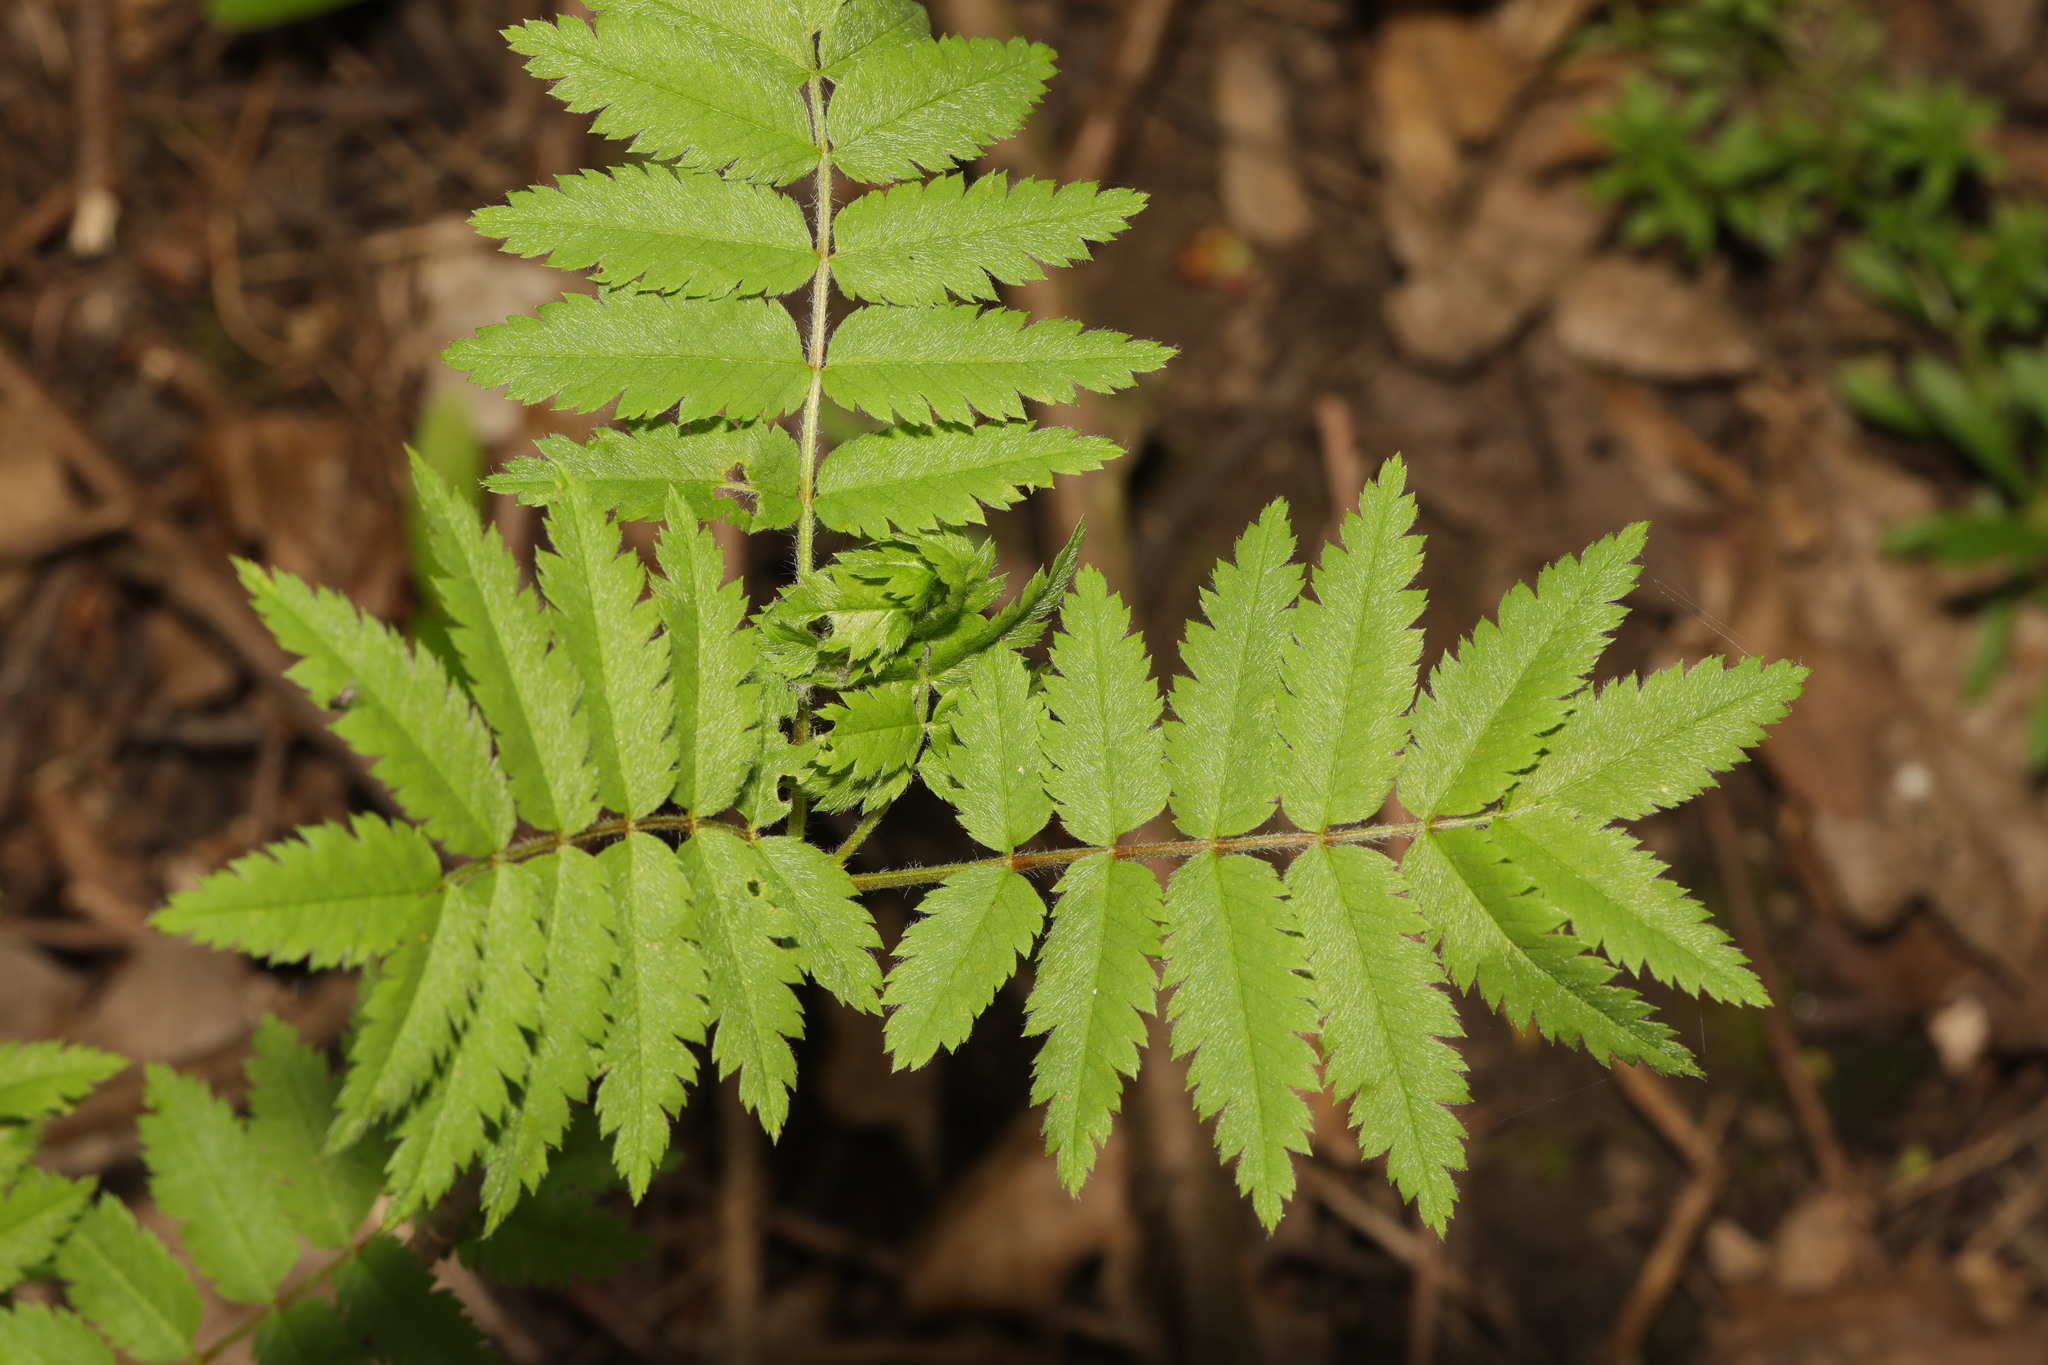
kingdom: Plantae
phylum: Tracheophyta
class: Magnoliopsida
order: Rosales
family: Rosaceae
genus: Sorbus
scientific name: Sorbus aucuparia
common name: Rowan
